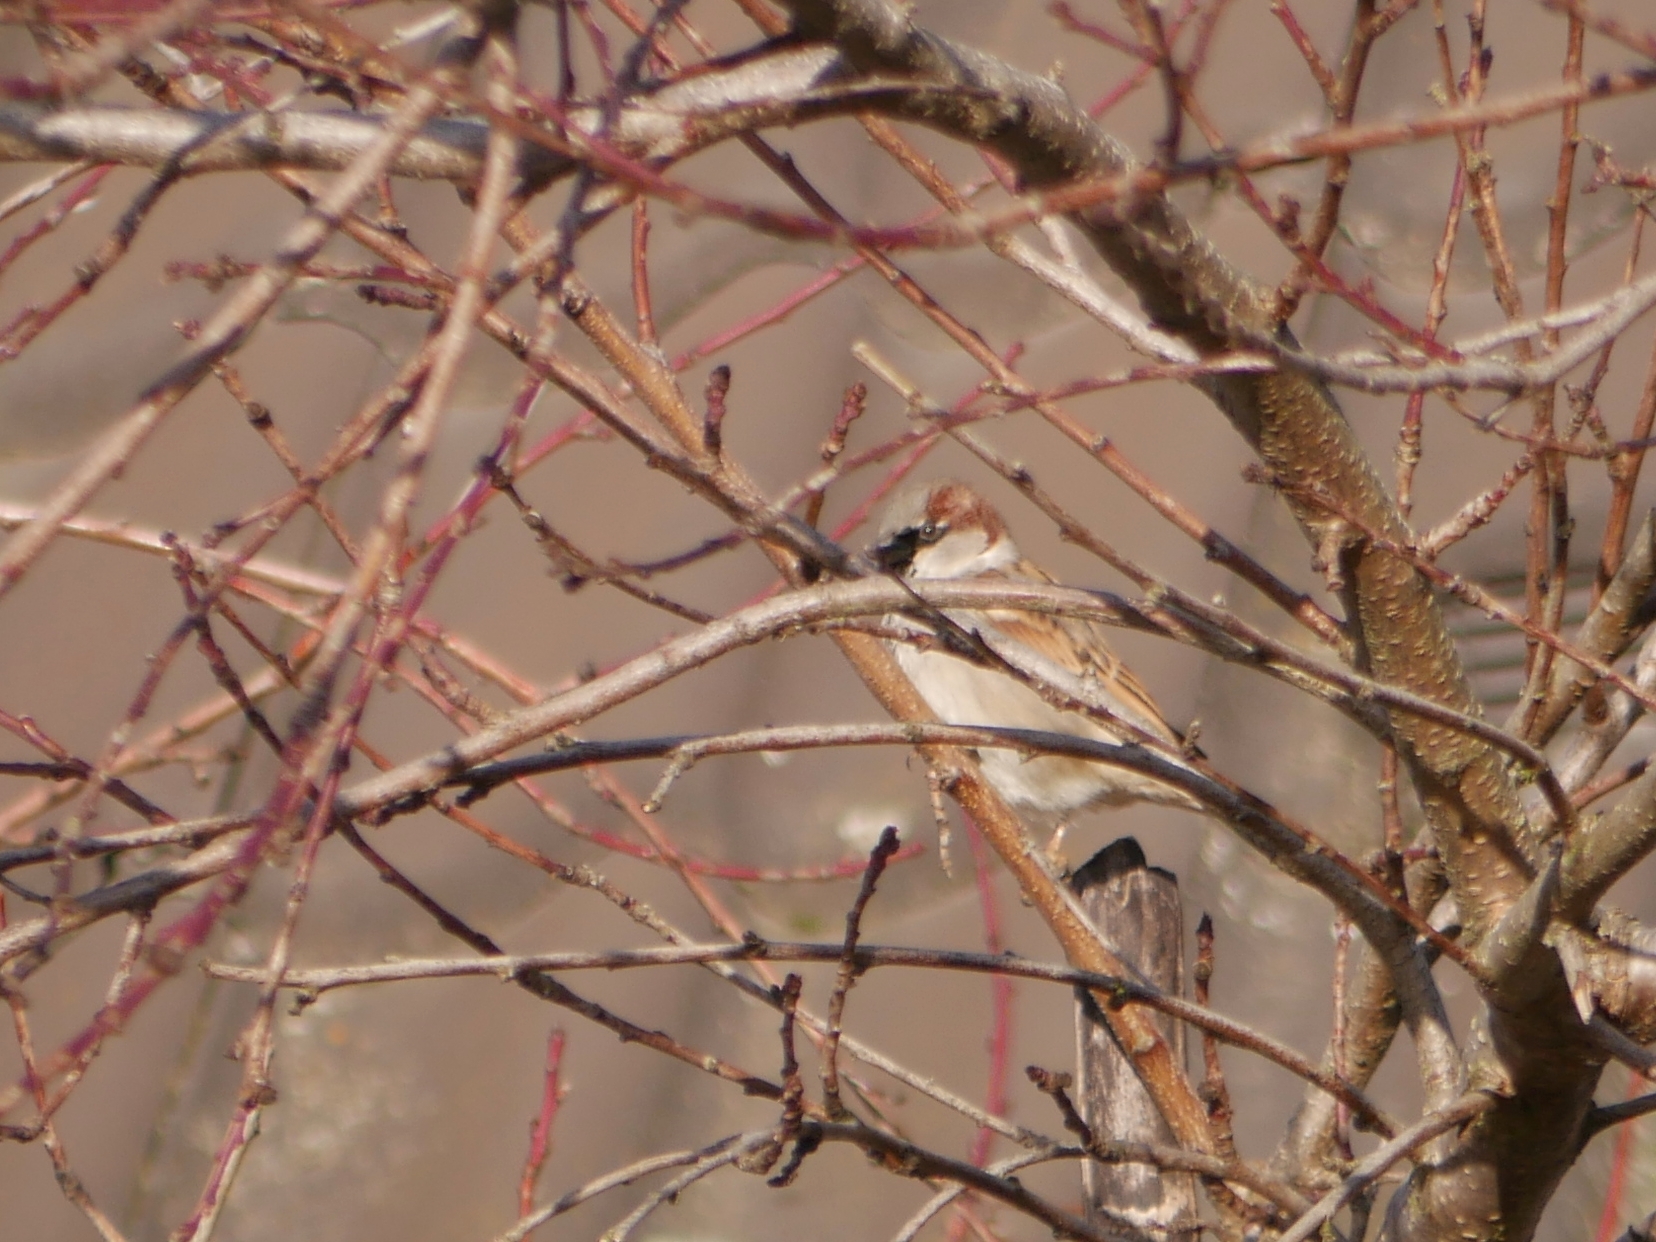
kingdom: Animalia
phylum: Chordata
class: Aves
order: Passeriformes
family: Passeridae
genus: Passer
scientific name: Passer domesticus
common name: House sparrow
